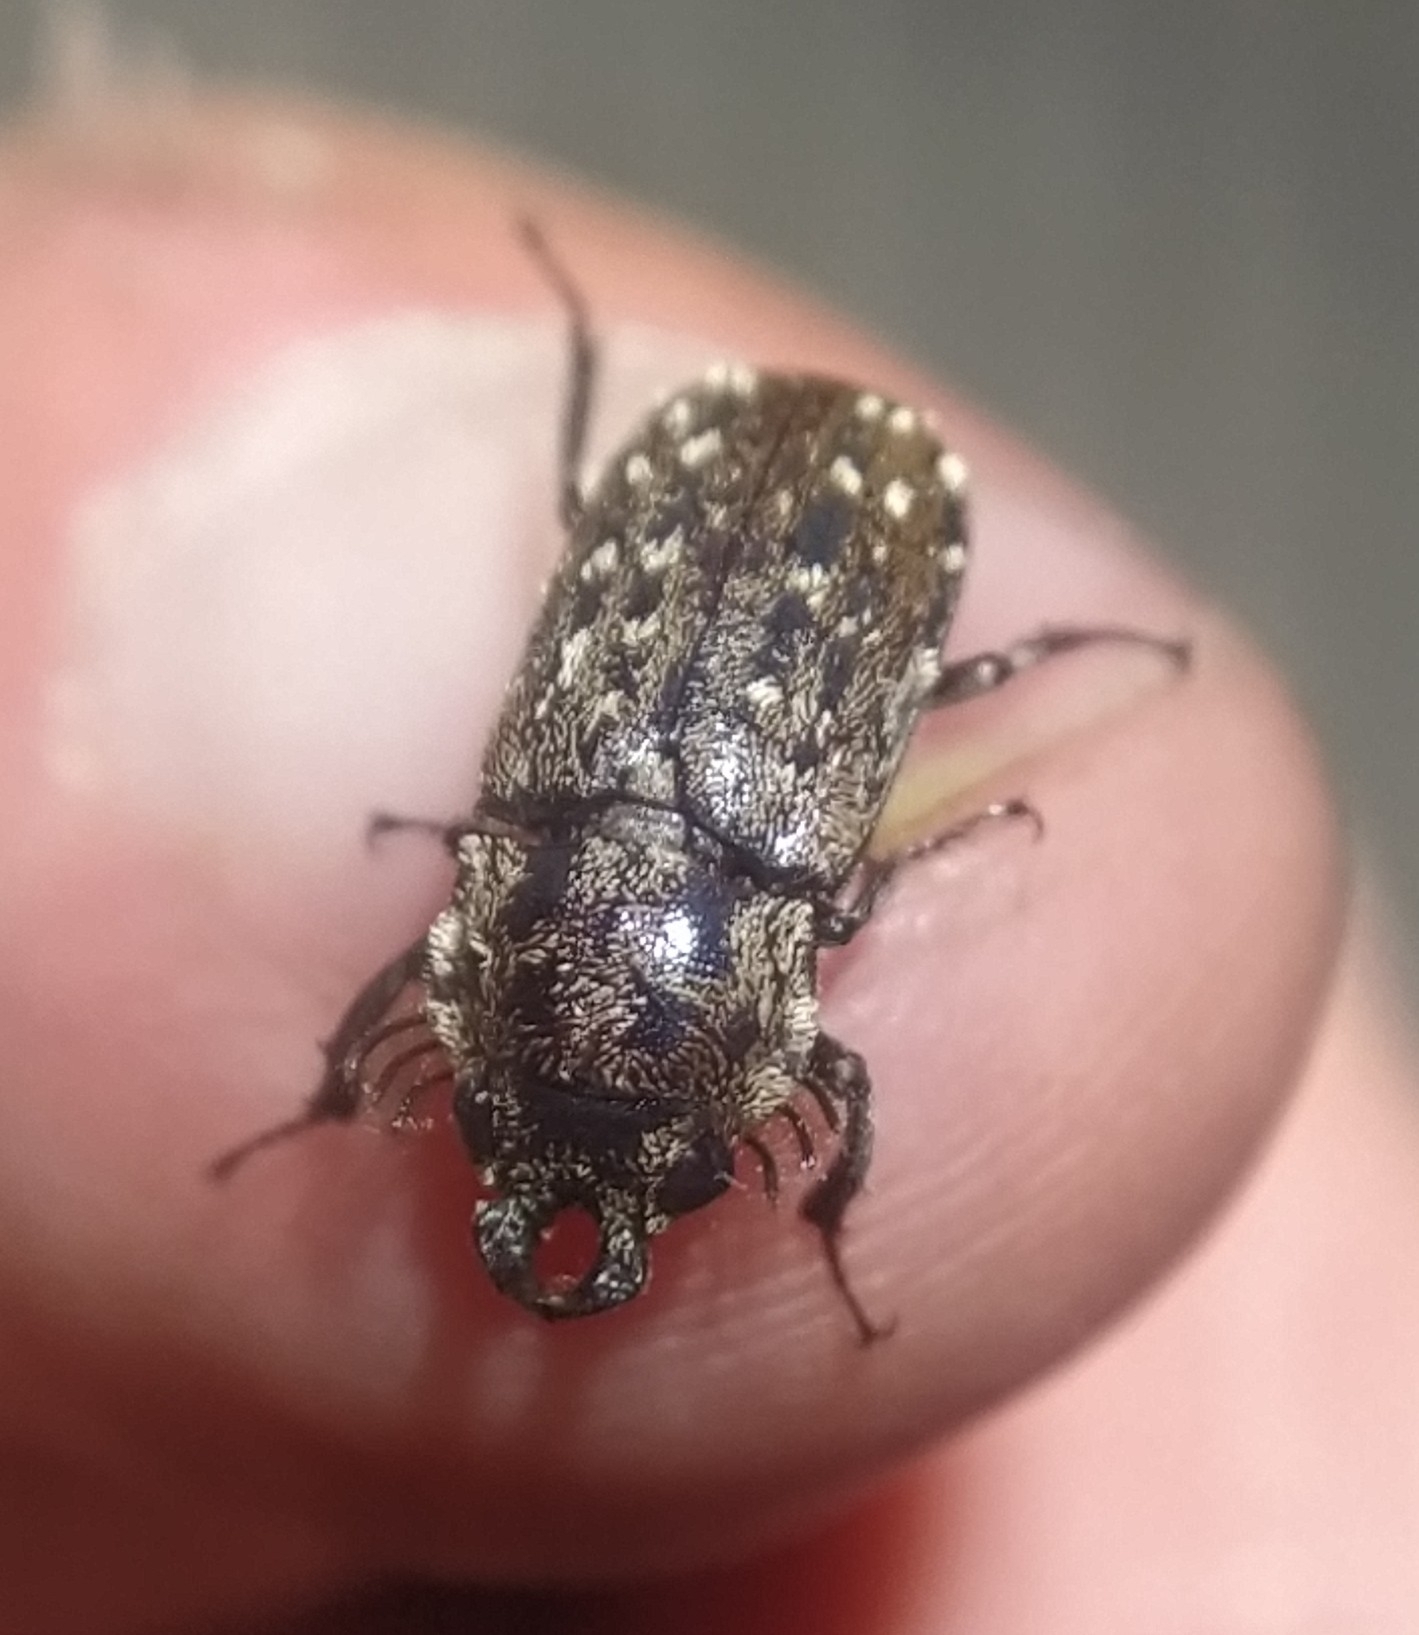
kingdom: Animalia
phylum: Arthropoda
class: Insecta
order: Coleoptera
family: Lucanidae
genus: Mitophyllus
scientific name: Mitophyllus arcuatus
